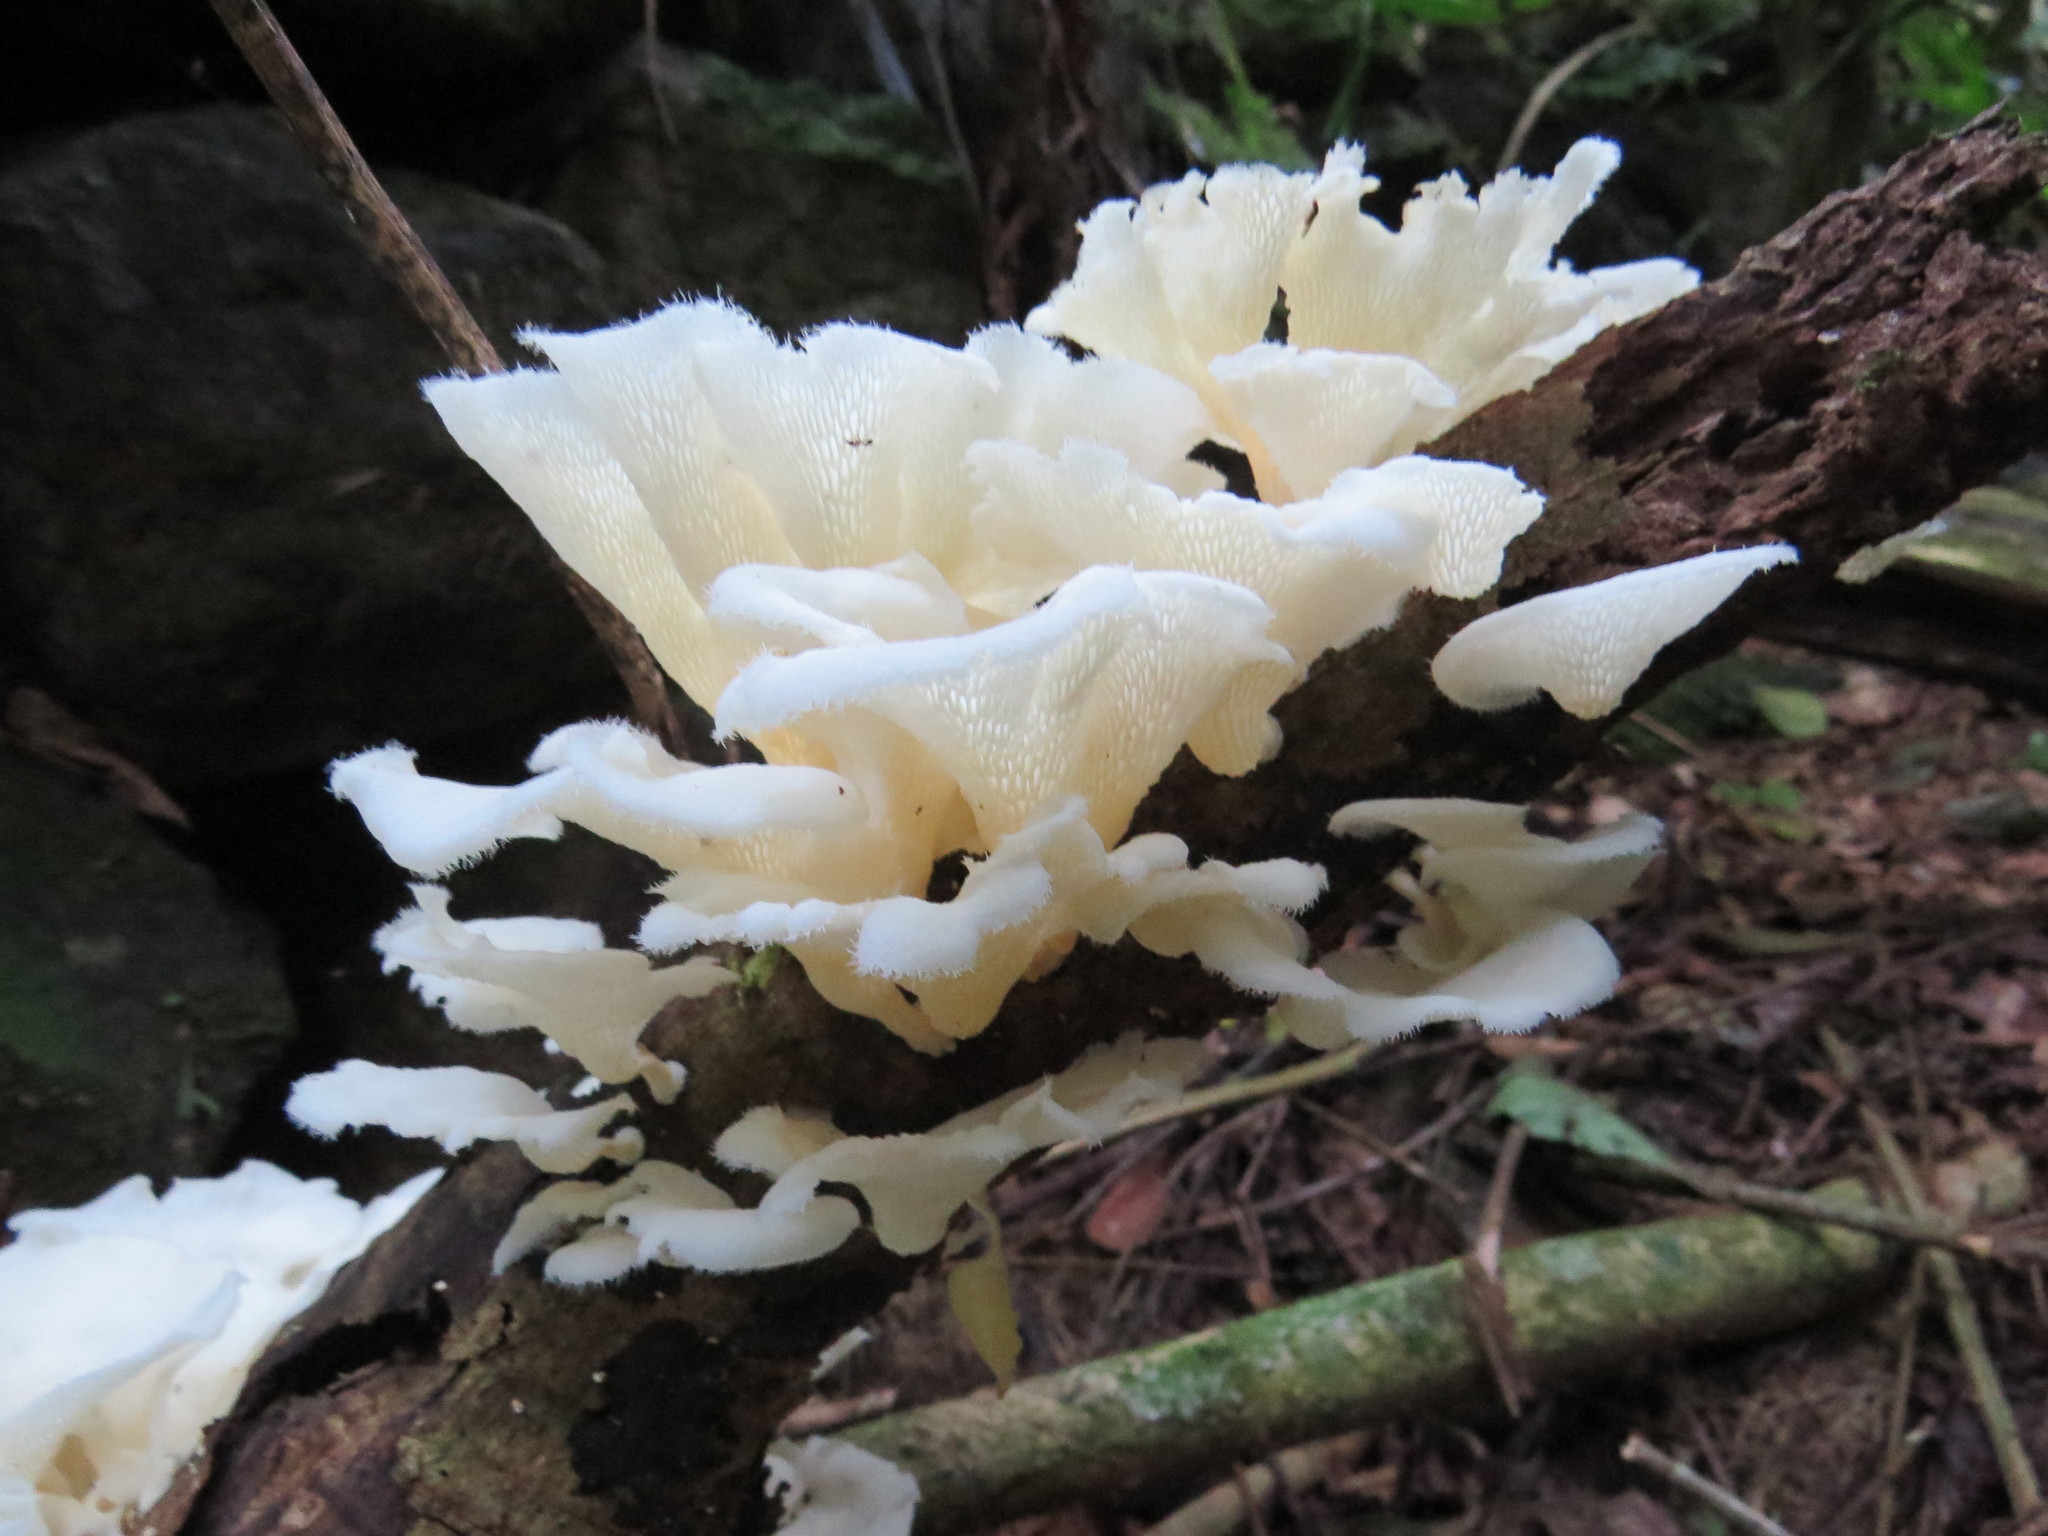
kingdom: Fungi
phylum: Basidiomycota
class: Agaricomycetes
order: Polyporales
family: Polyporaceae
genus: Favolus
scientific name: Favolus tenuiculus
